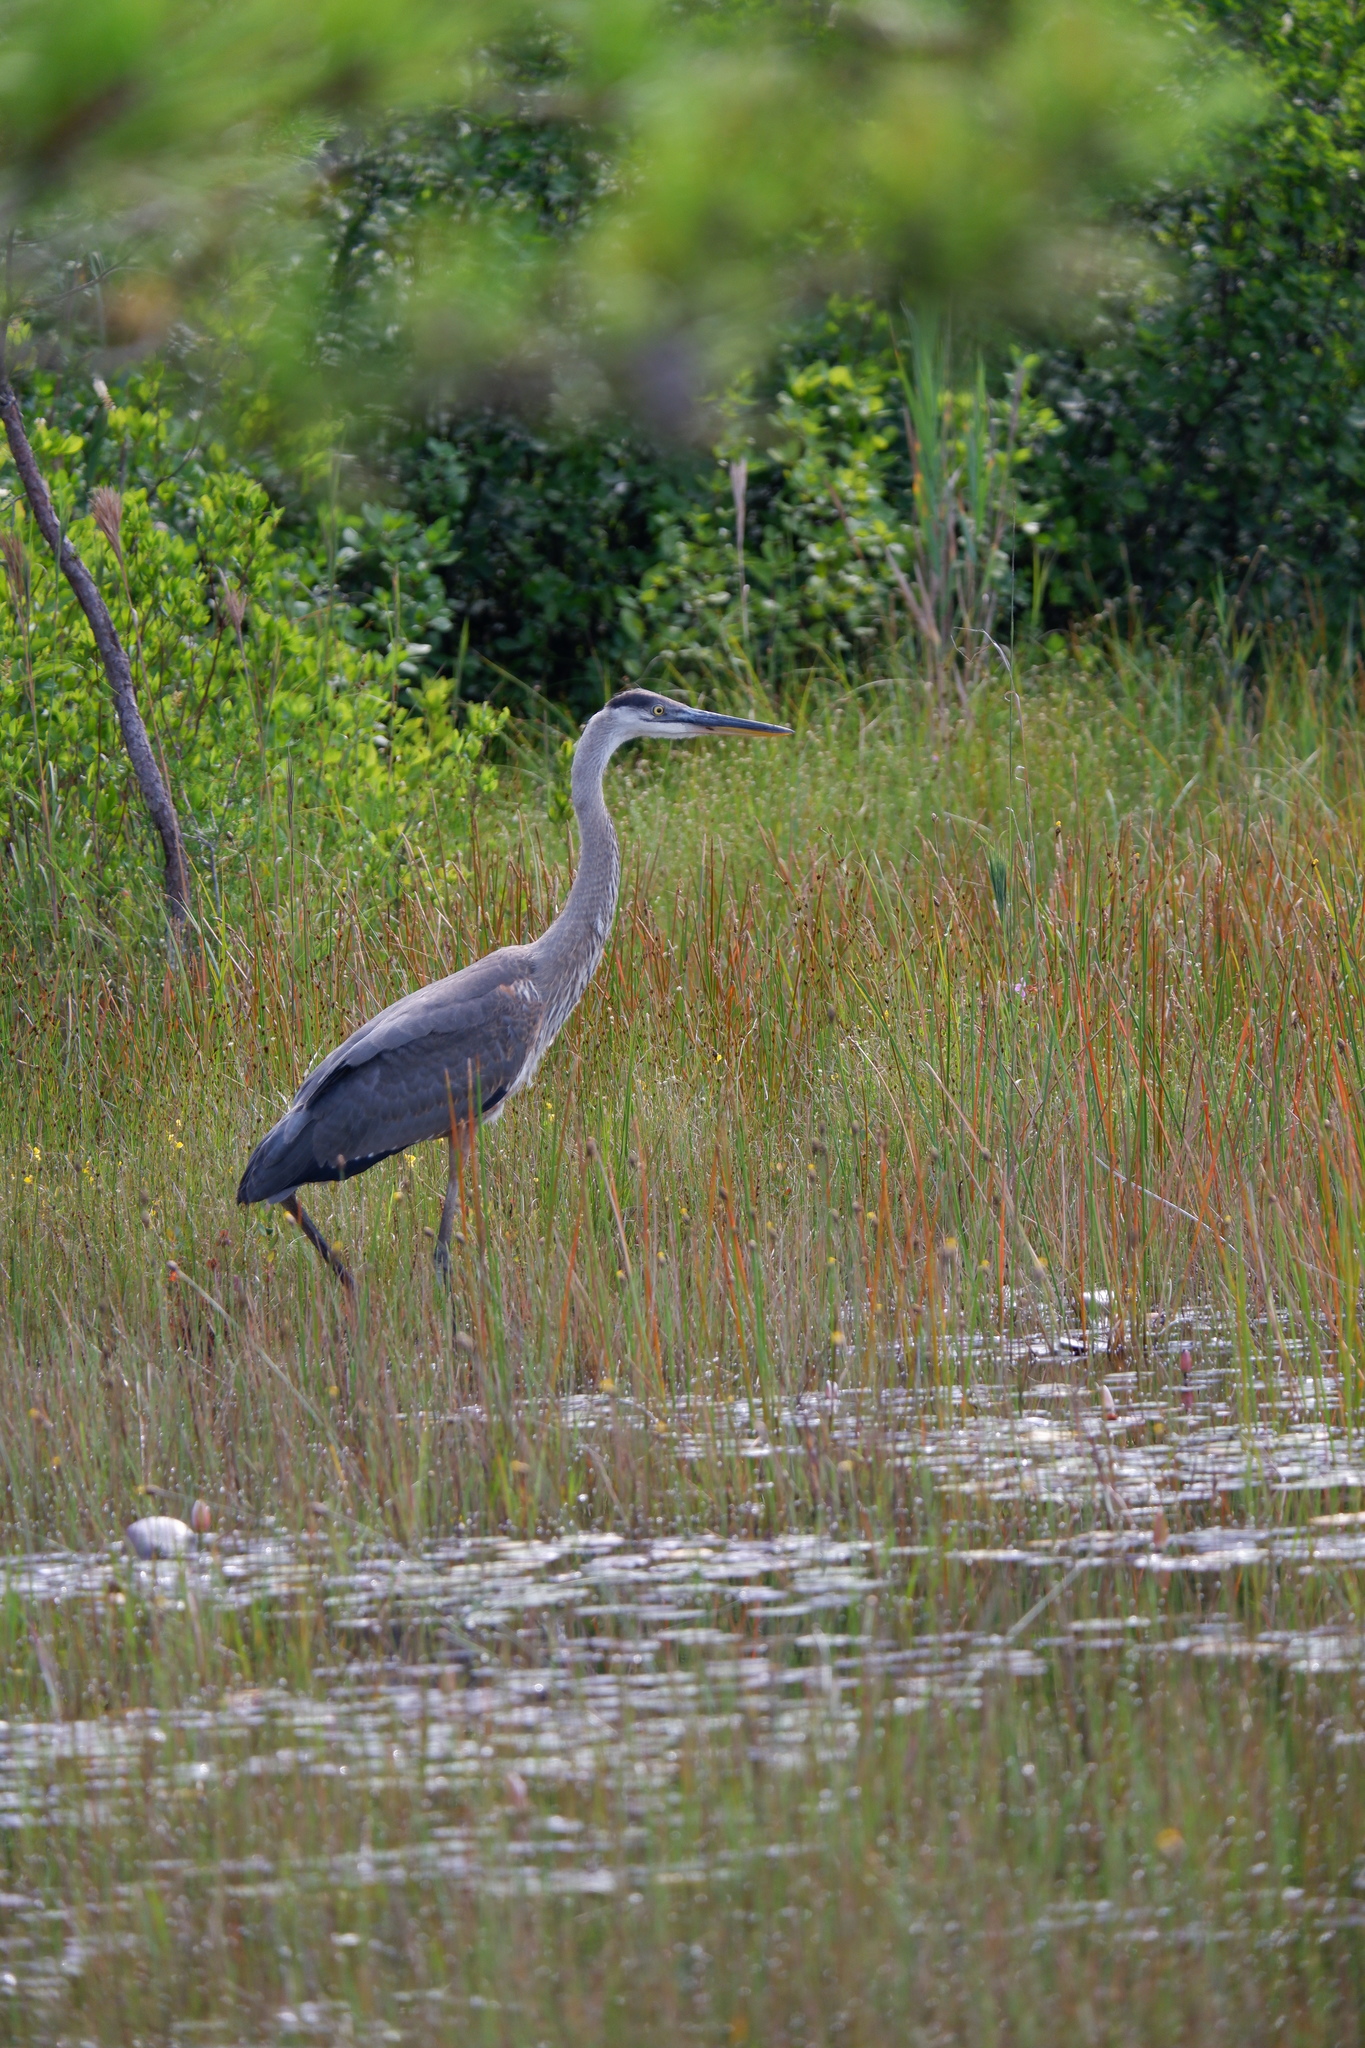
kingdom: Animalia
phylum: Chordata
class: Aves
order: Pelecaniformes
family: Ardeidae
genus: Ardea
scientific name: Ardea herodias
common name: Great blue heron
